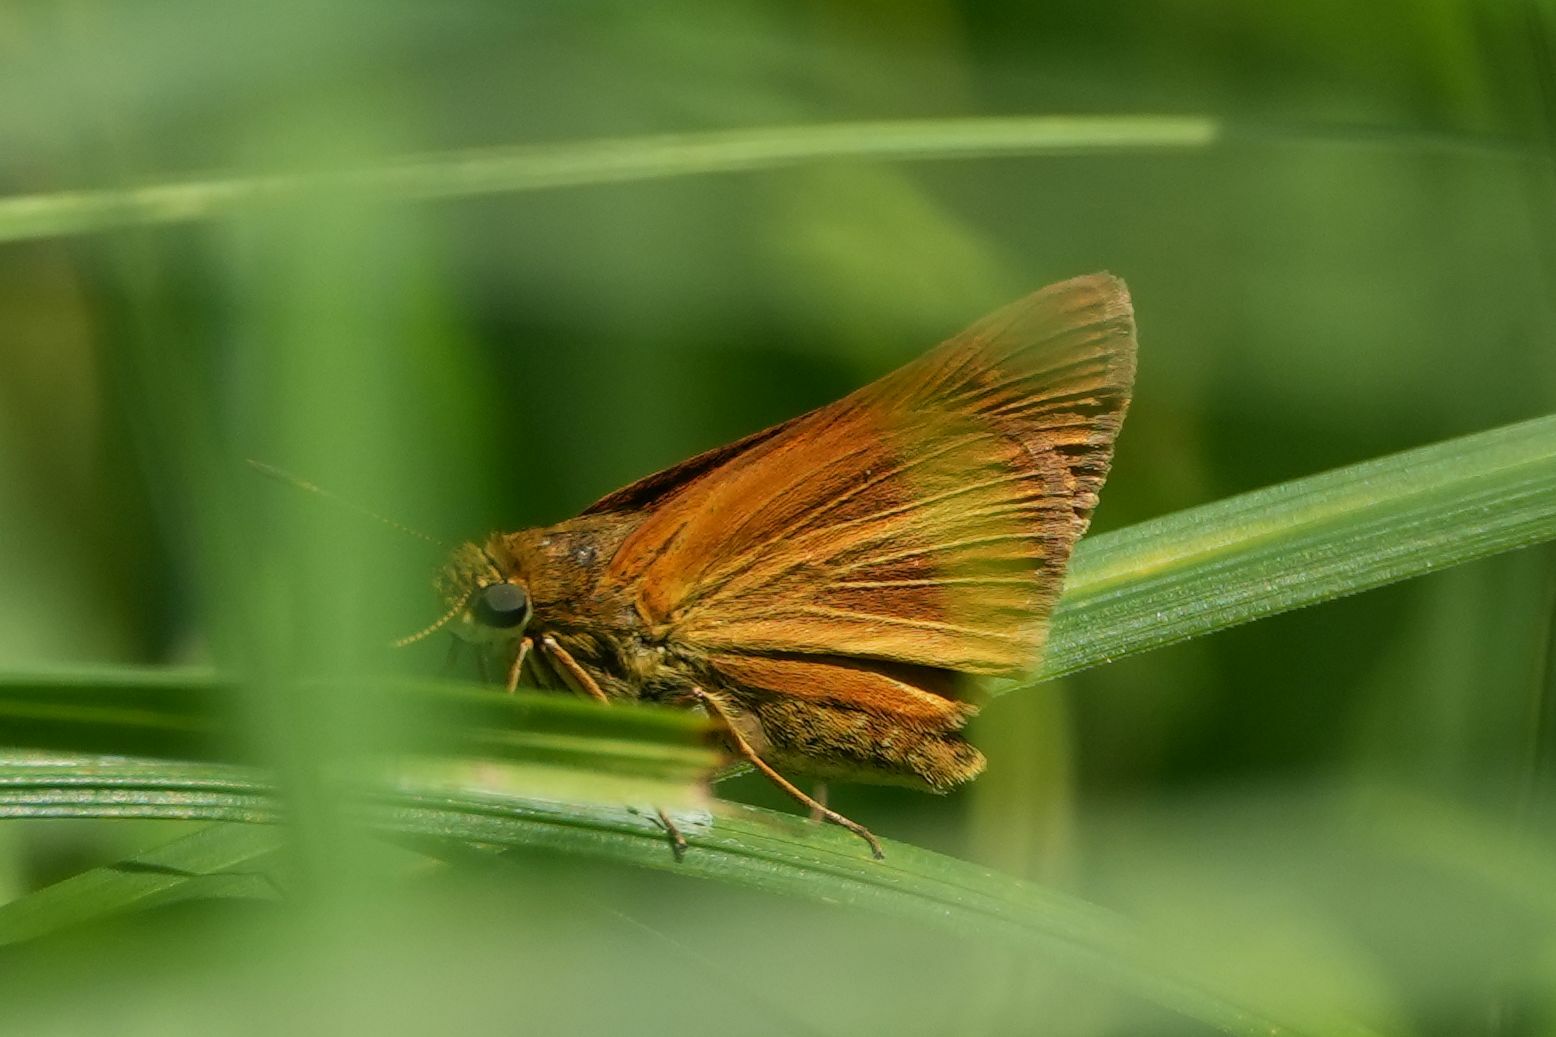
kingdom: Animalia
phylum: Arthropoda
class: Insecta
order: Lepidoptera
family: Hesperiidae
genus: Euphyes
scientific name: Euphyes dion
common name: Dion skipper
